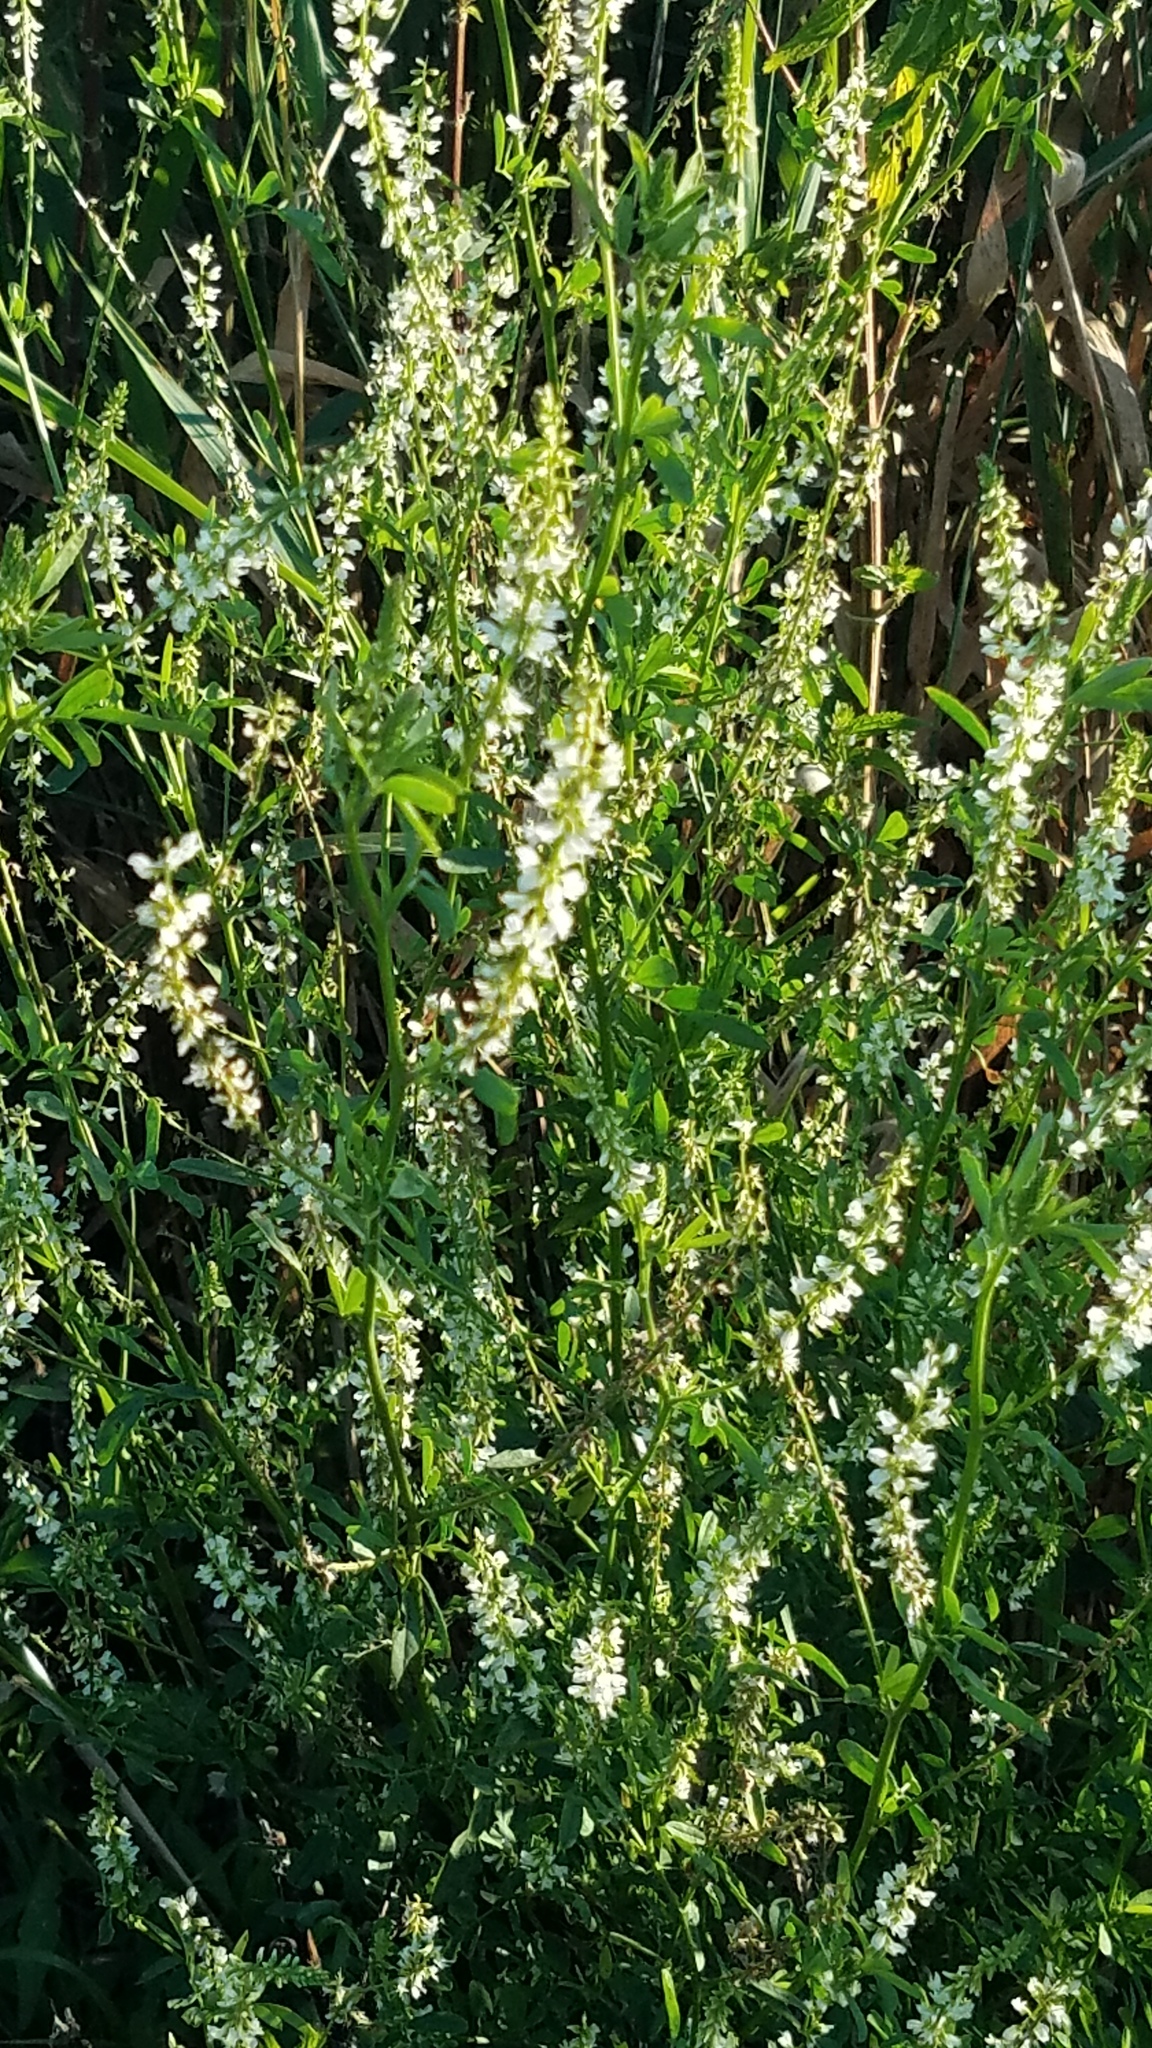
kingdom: Plantae
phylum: Tracheophyta
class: Magnoliopsida
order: Fabales
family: Fabaceae
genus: Melilotus
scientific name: Melilotus albus
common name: White melilot
